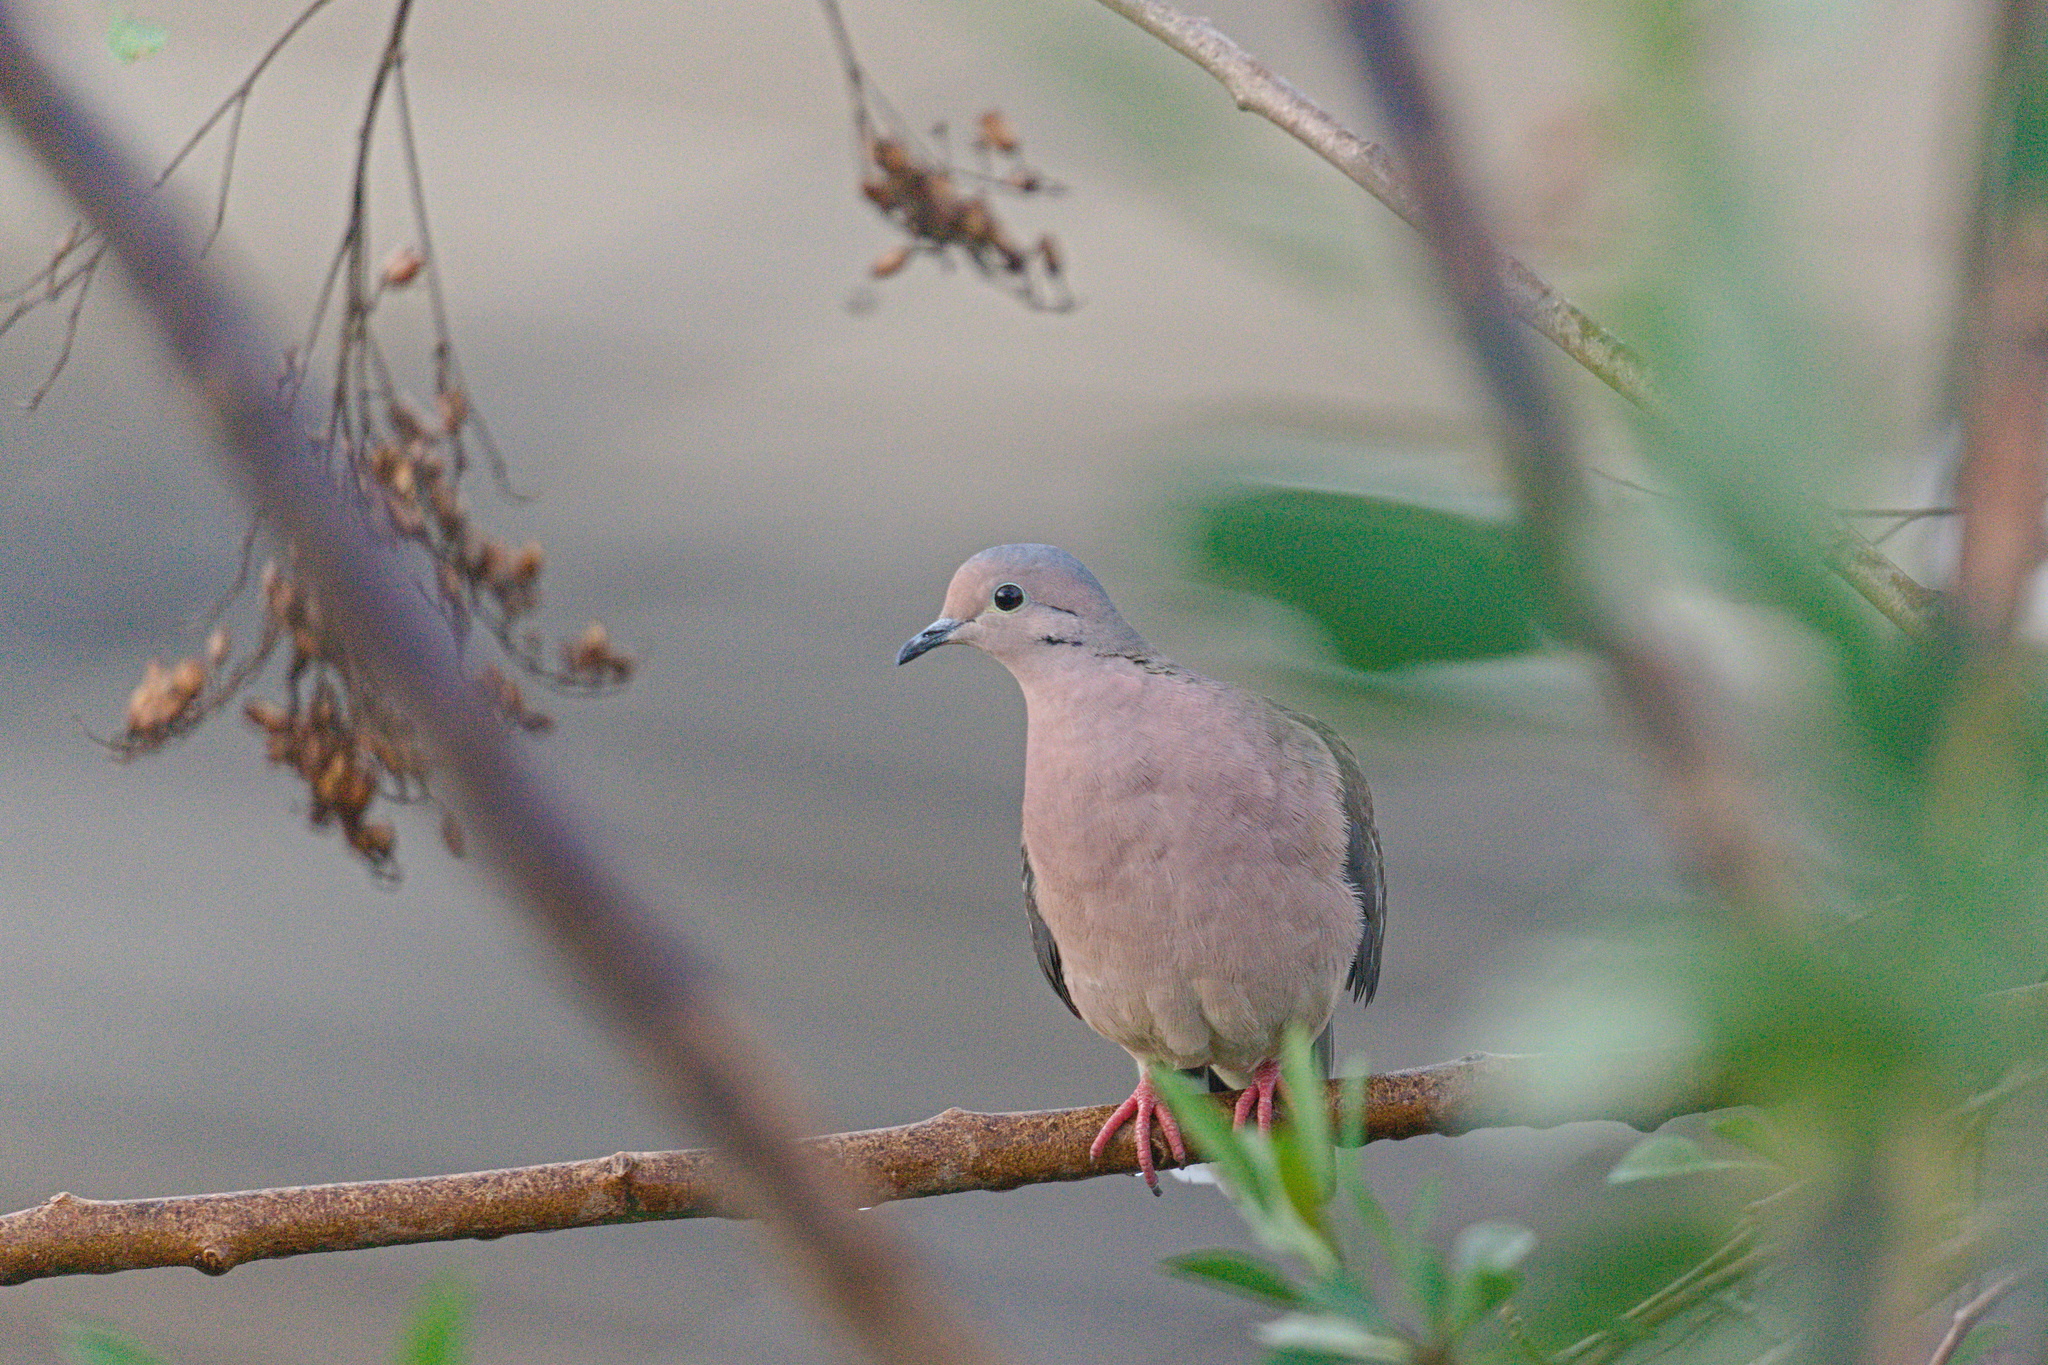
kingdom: Animalia
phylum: Chordata
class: Aves
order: Columbiformes
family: Columbidae
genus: Zenaida
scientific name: Zenaida auriculata
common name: Eared dove
